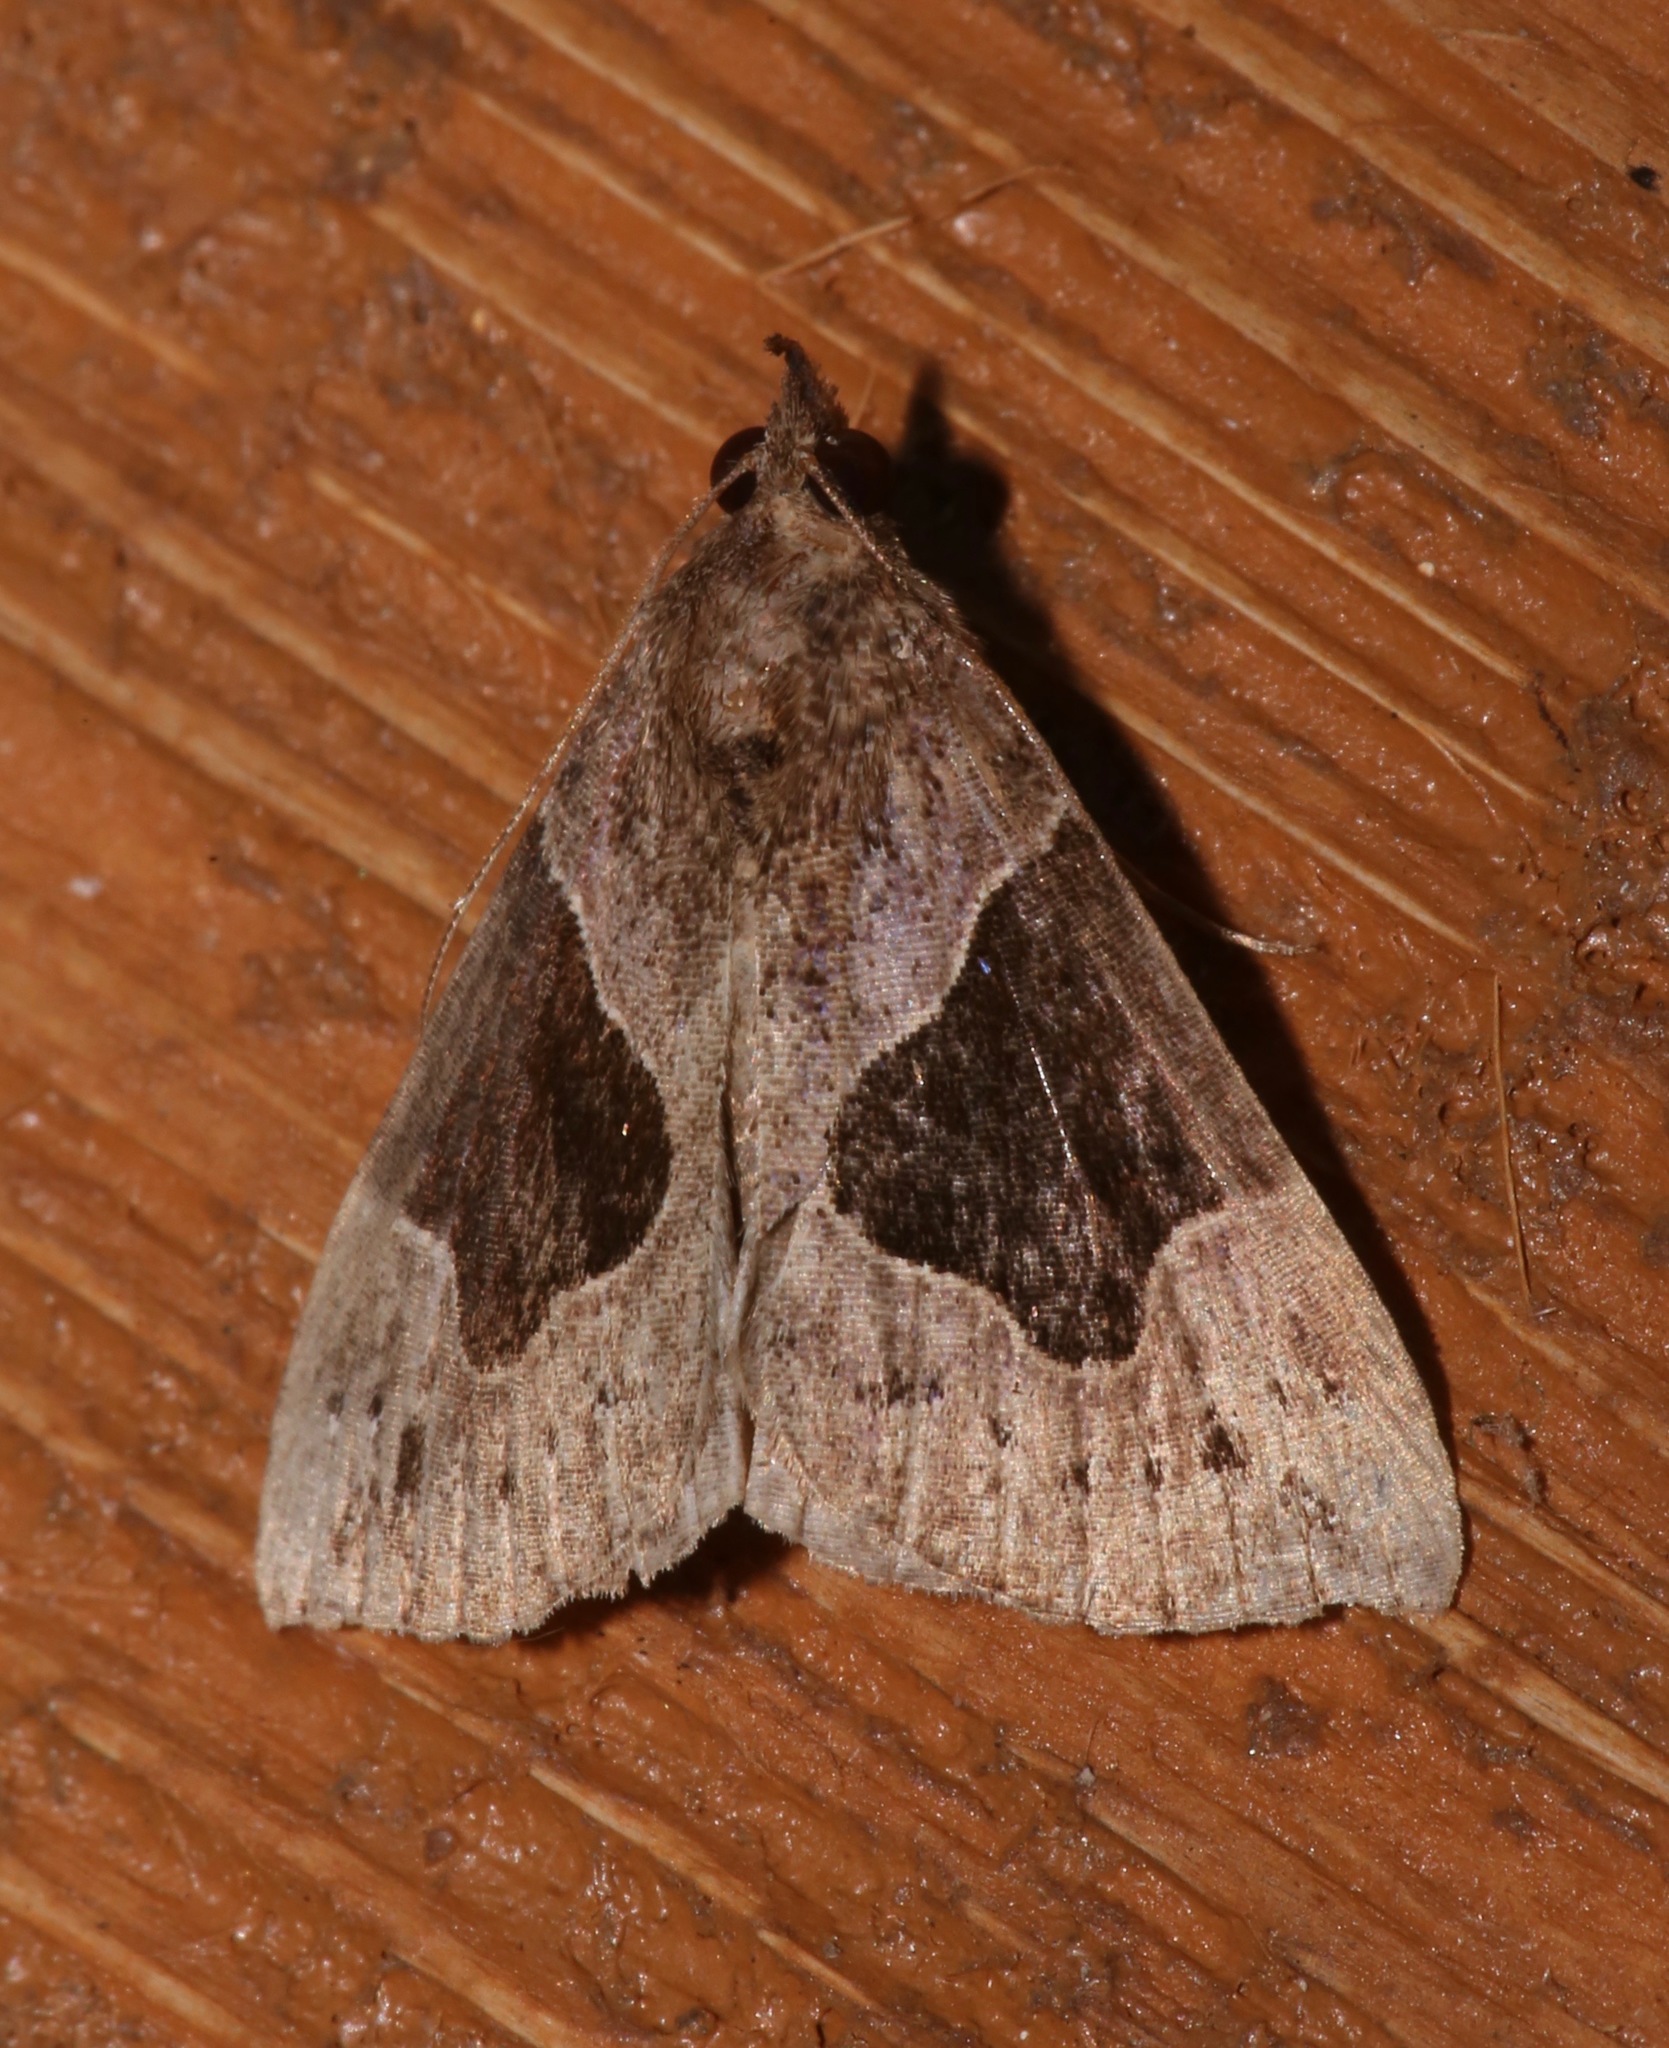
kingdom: Animalia
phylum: Arthropoda
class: Insecta
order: Lepidoptera
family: Erebidae
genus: Hypena
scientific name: Hypena manalis
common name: Flowing-line bomolocha moth
